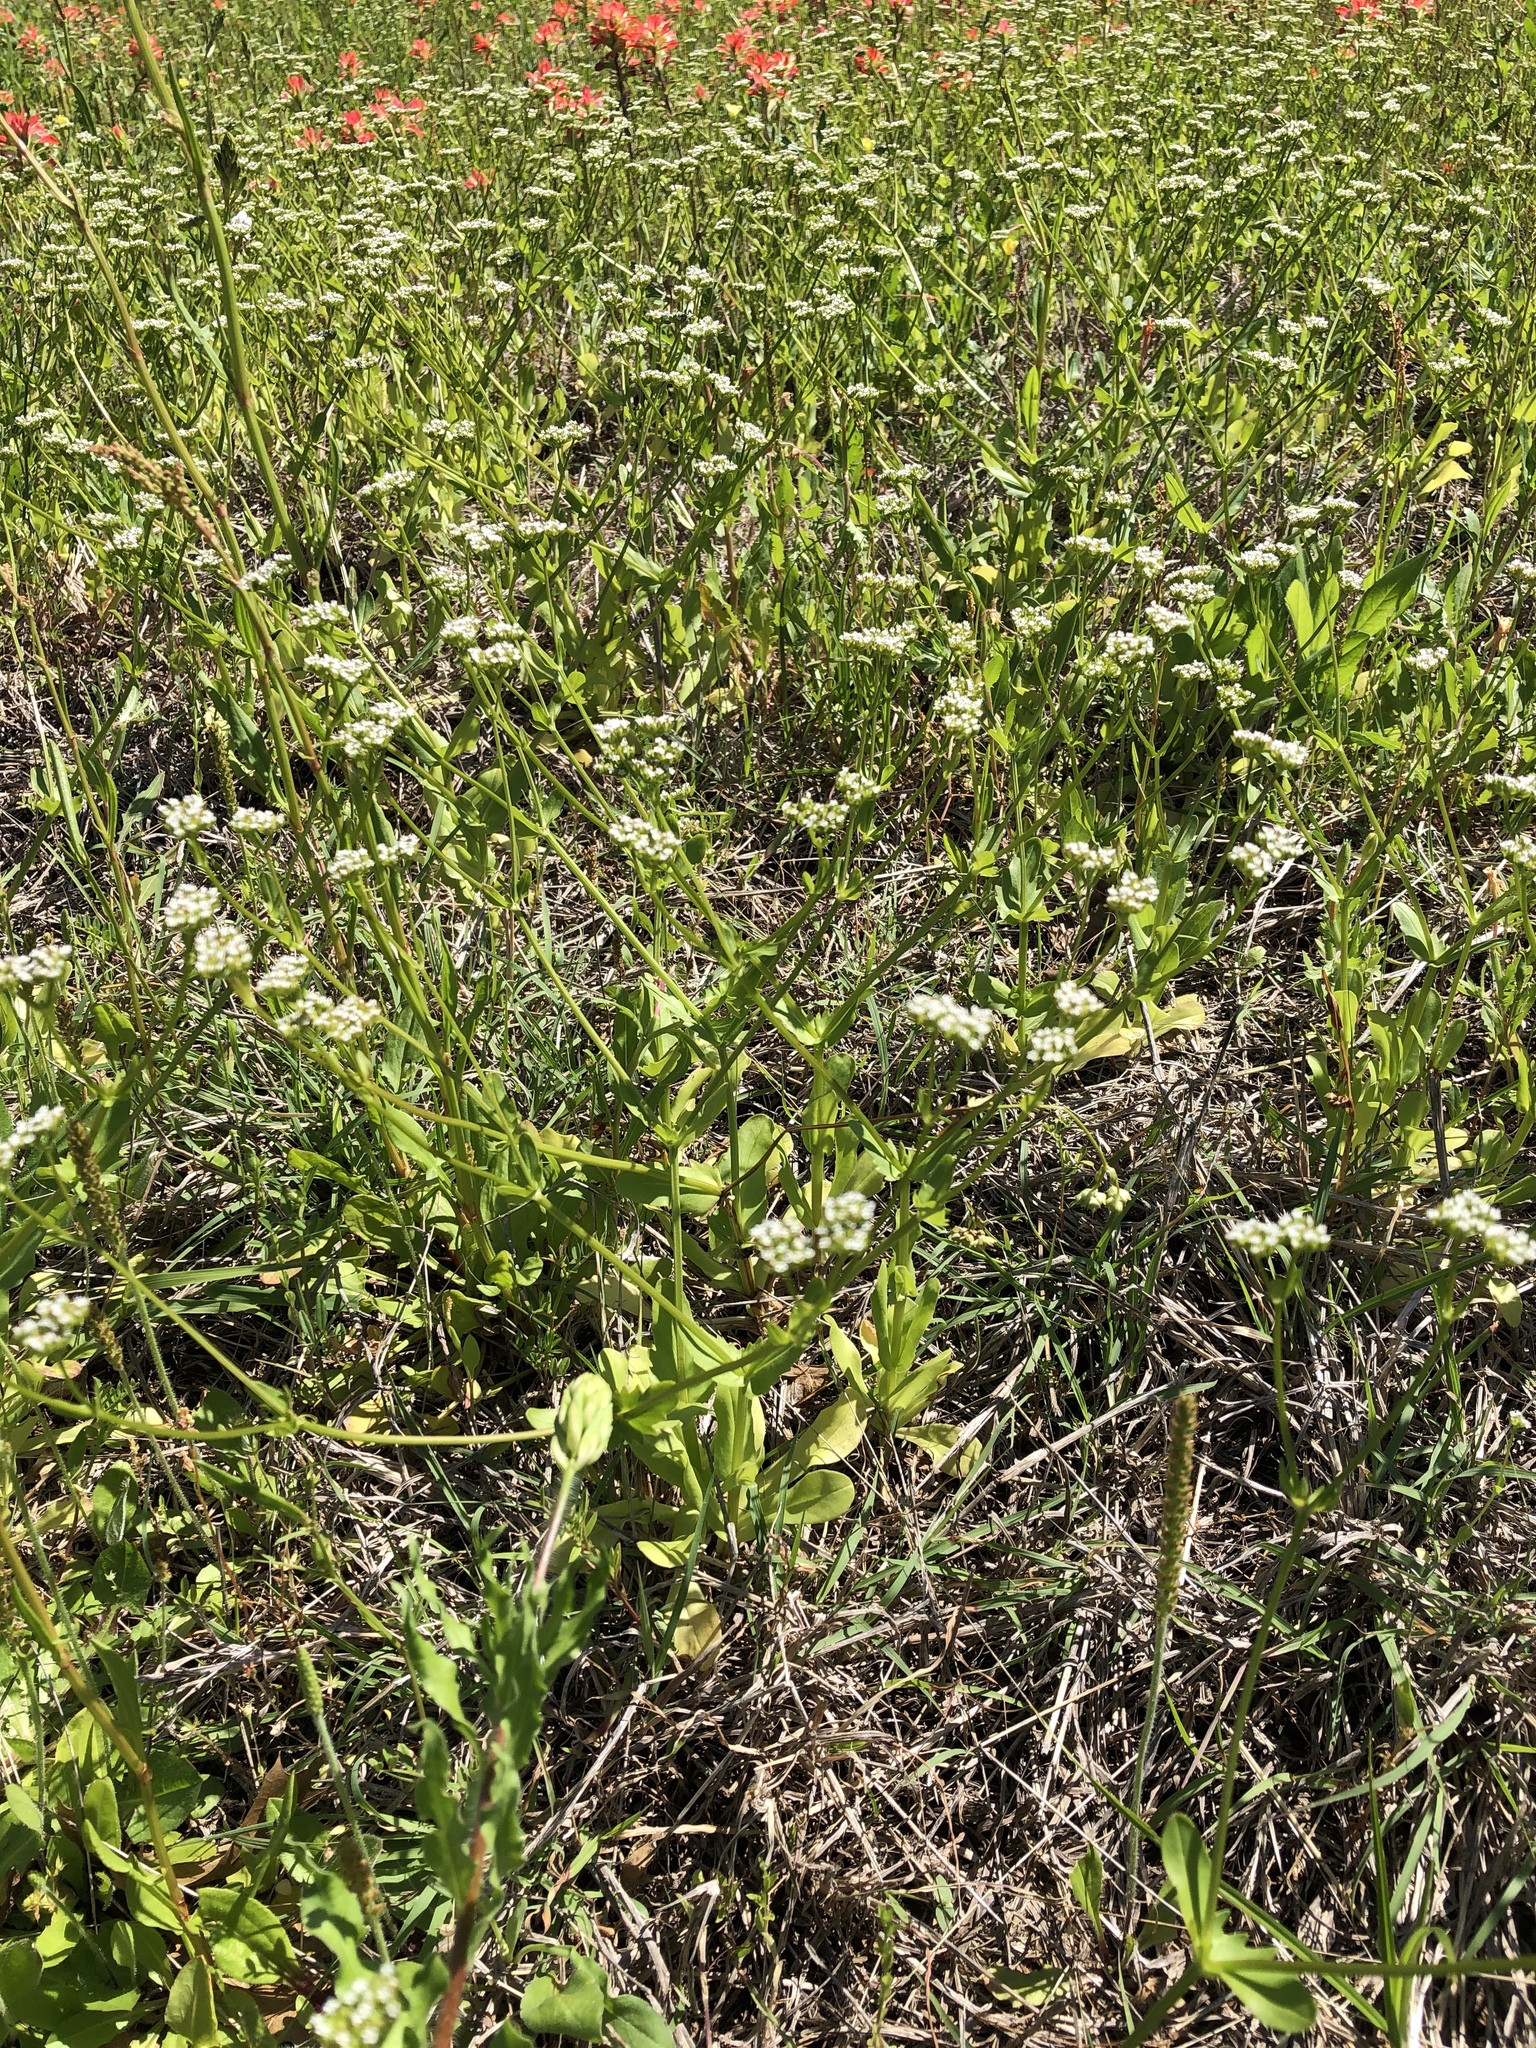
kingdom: Plantae
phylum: Tracheophyta
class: Magnoliopsida
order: Dipsacales
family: Caprifoliaceae
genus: Valerianella
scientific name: Valerianella radiata
